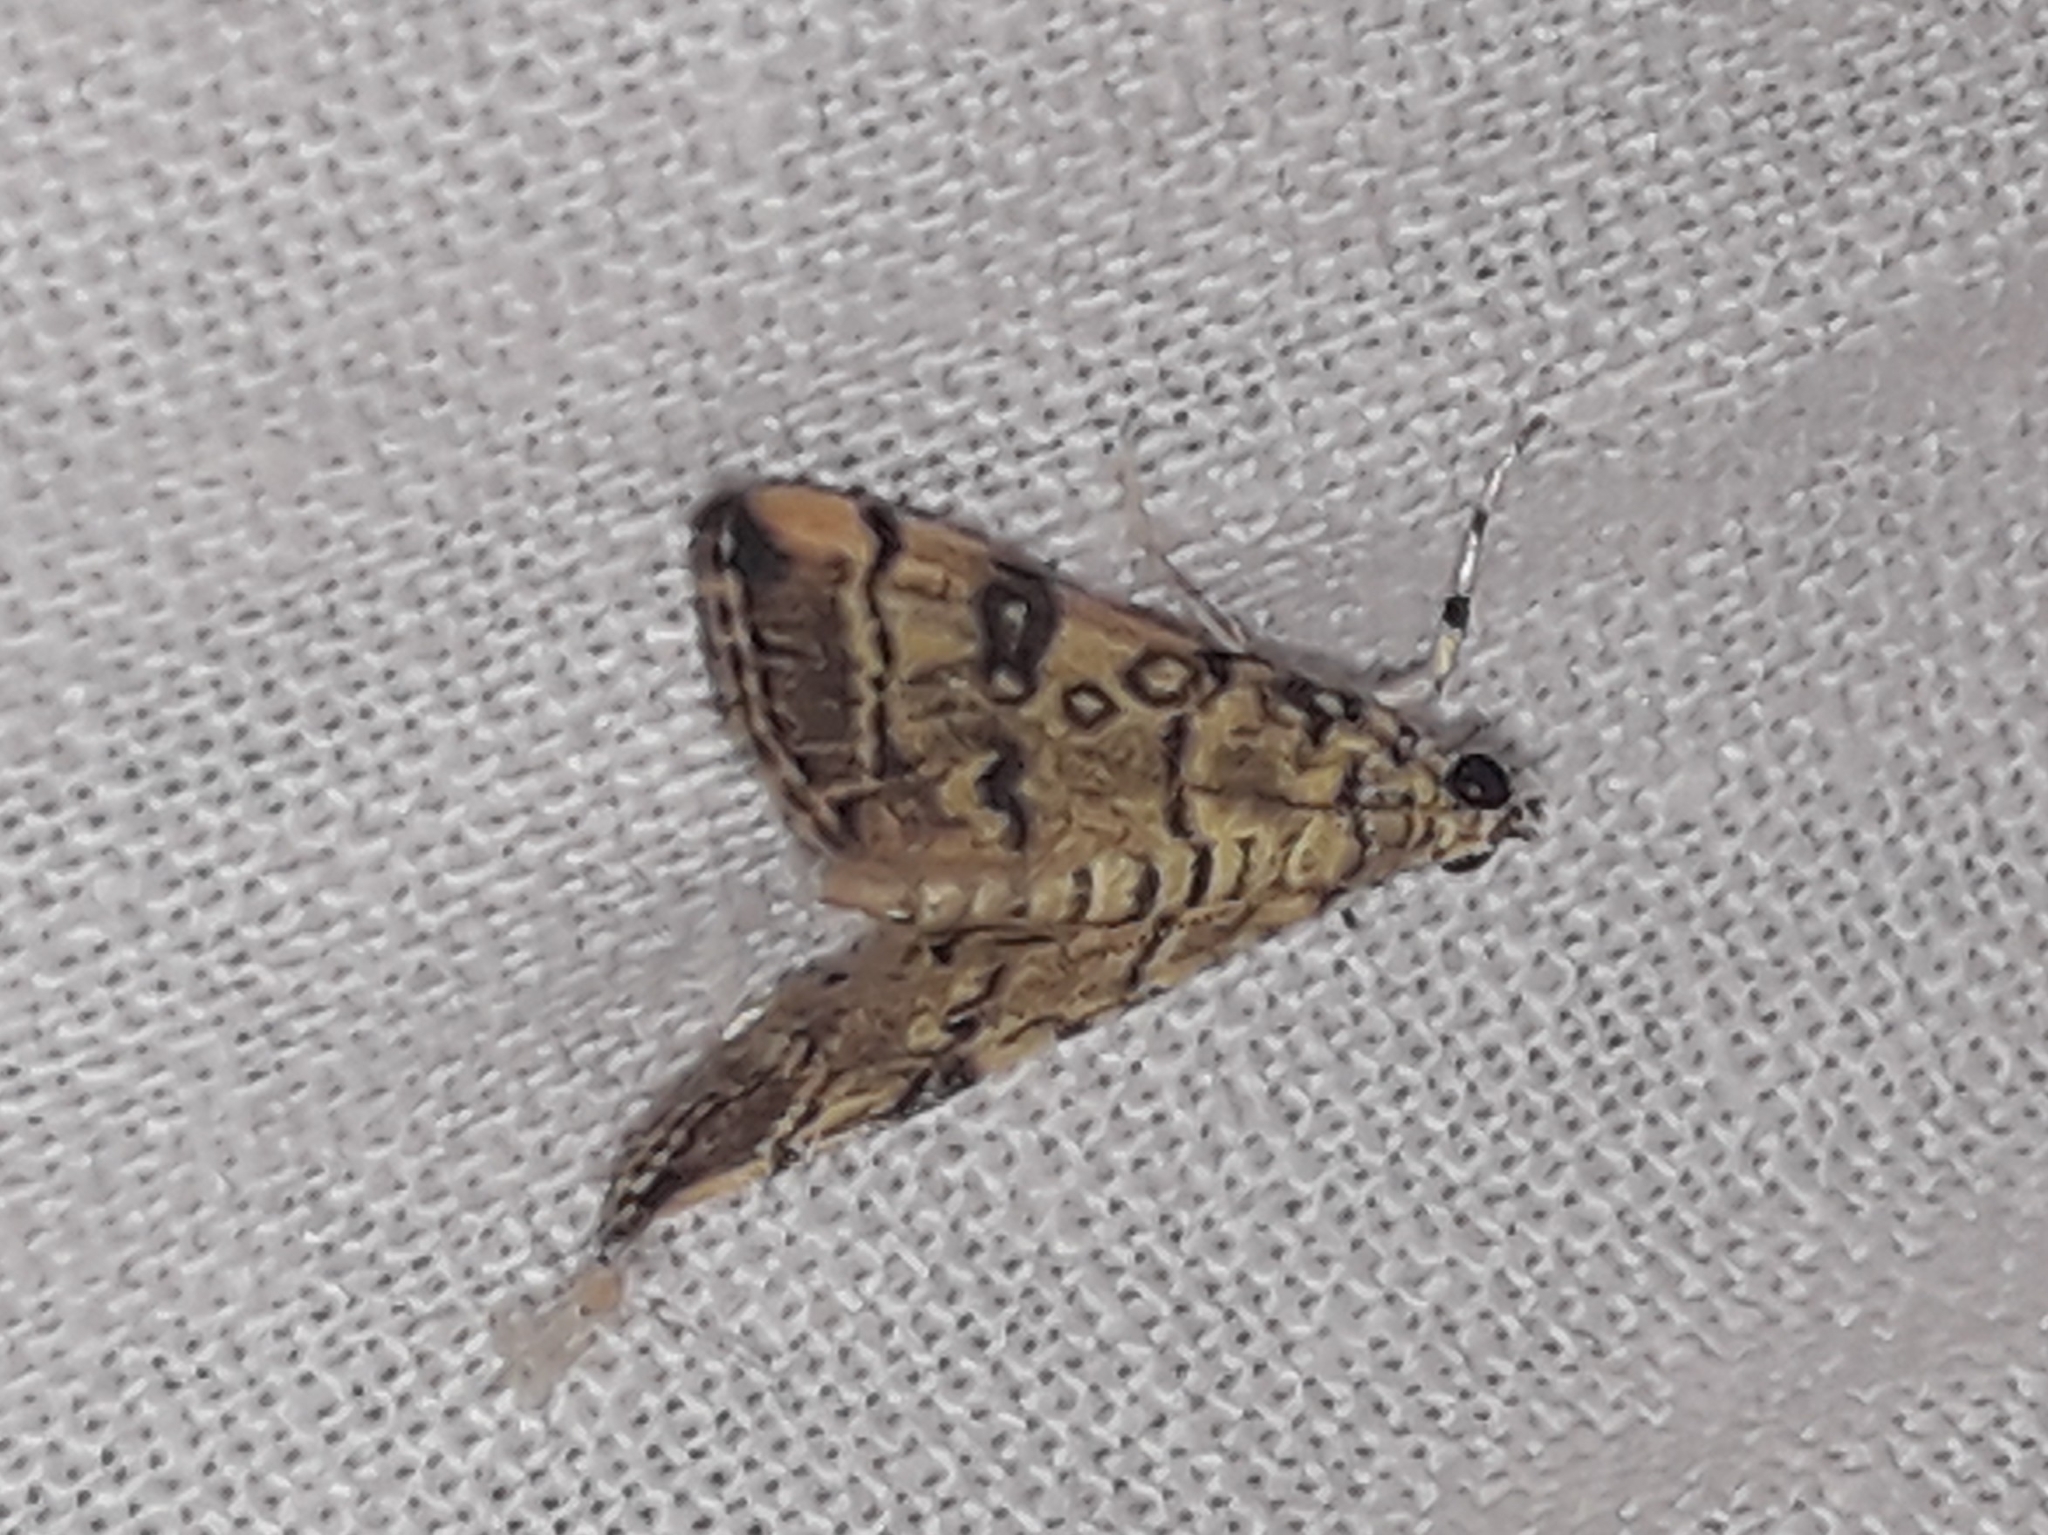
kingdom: Animalia
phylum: Arthropoda
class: Insecta
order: Lepidoptera
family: Crambidae
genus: Apogeshna
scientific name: Apogeshna stenialis
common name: Checkered apogeshna moth
